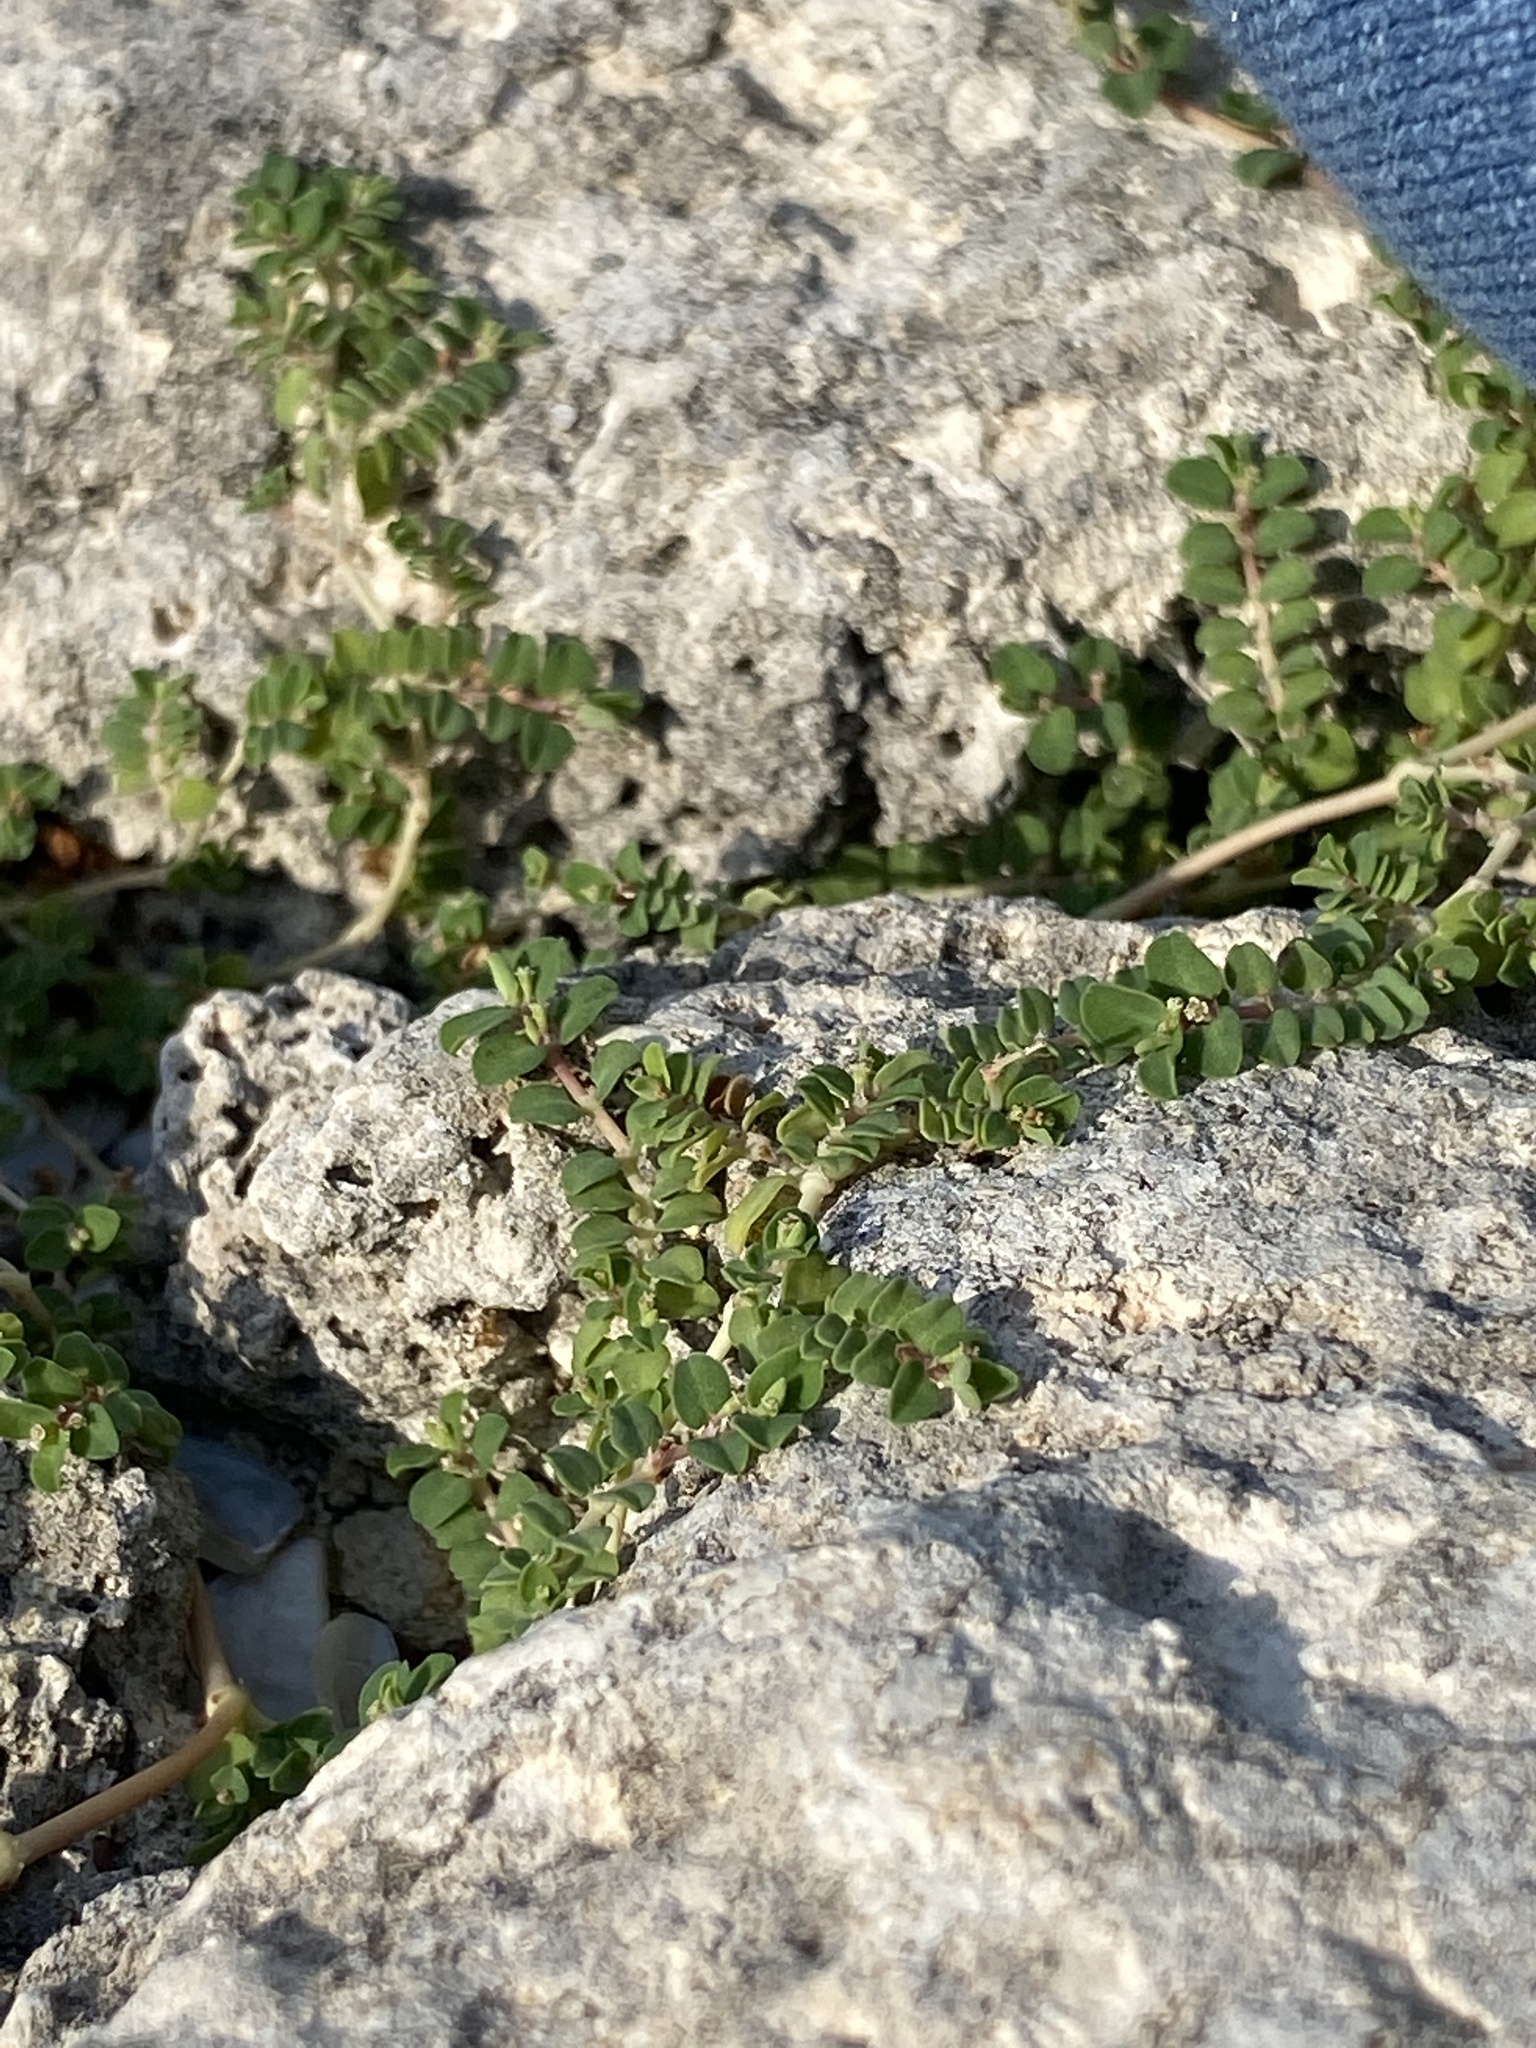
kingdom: Plantae
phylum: Tracheophyta
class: Magnoliopsida
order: Malpighiales
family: Euphorbiaceae
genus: Euphorbia
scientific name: Euphorbia serpens
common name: Matted sandmat
